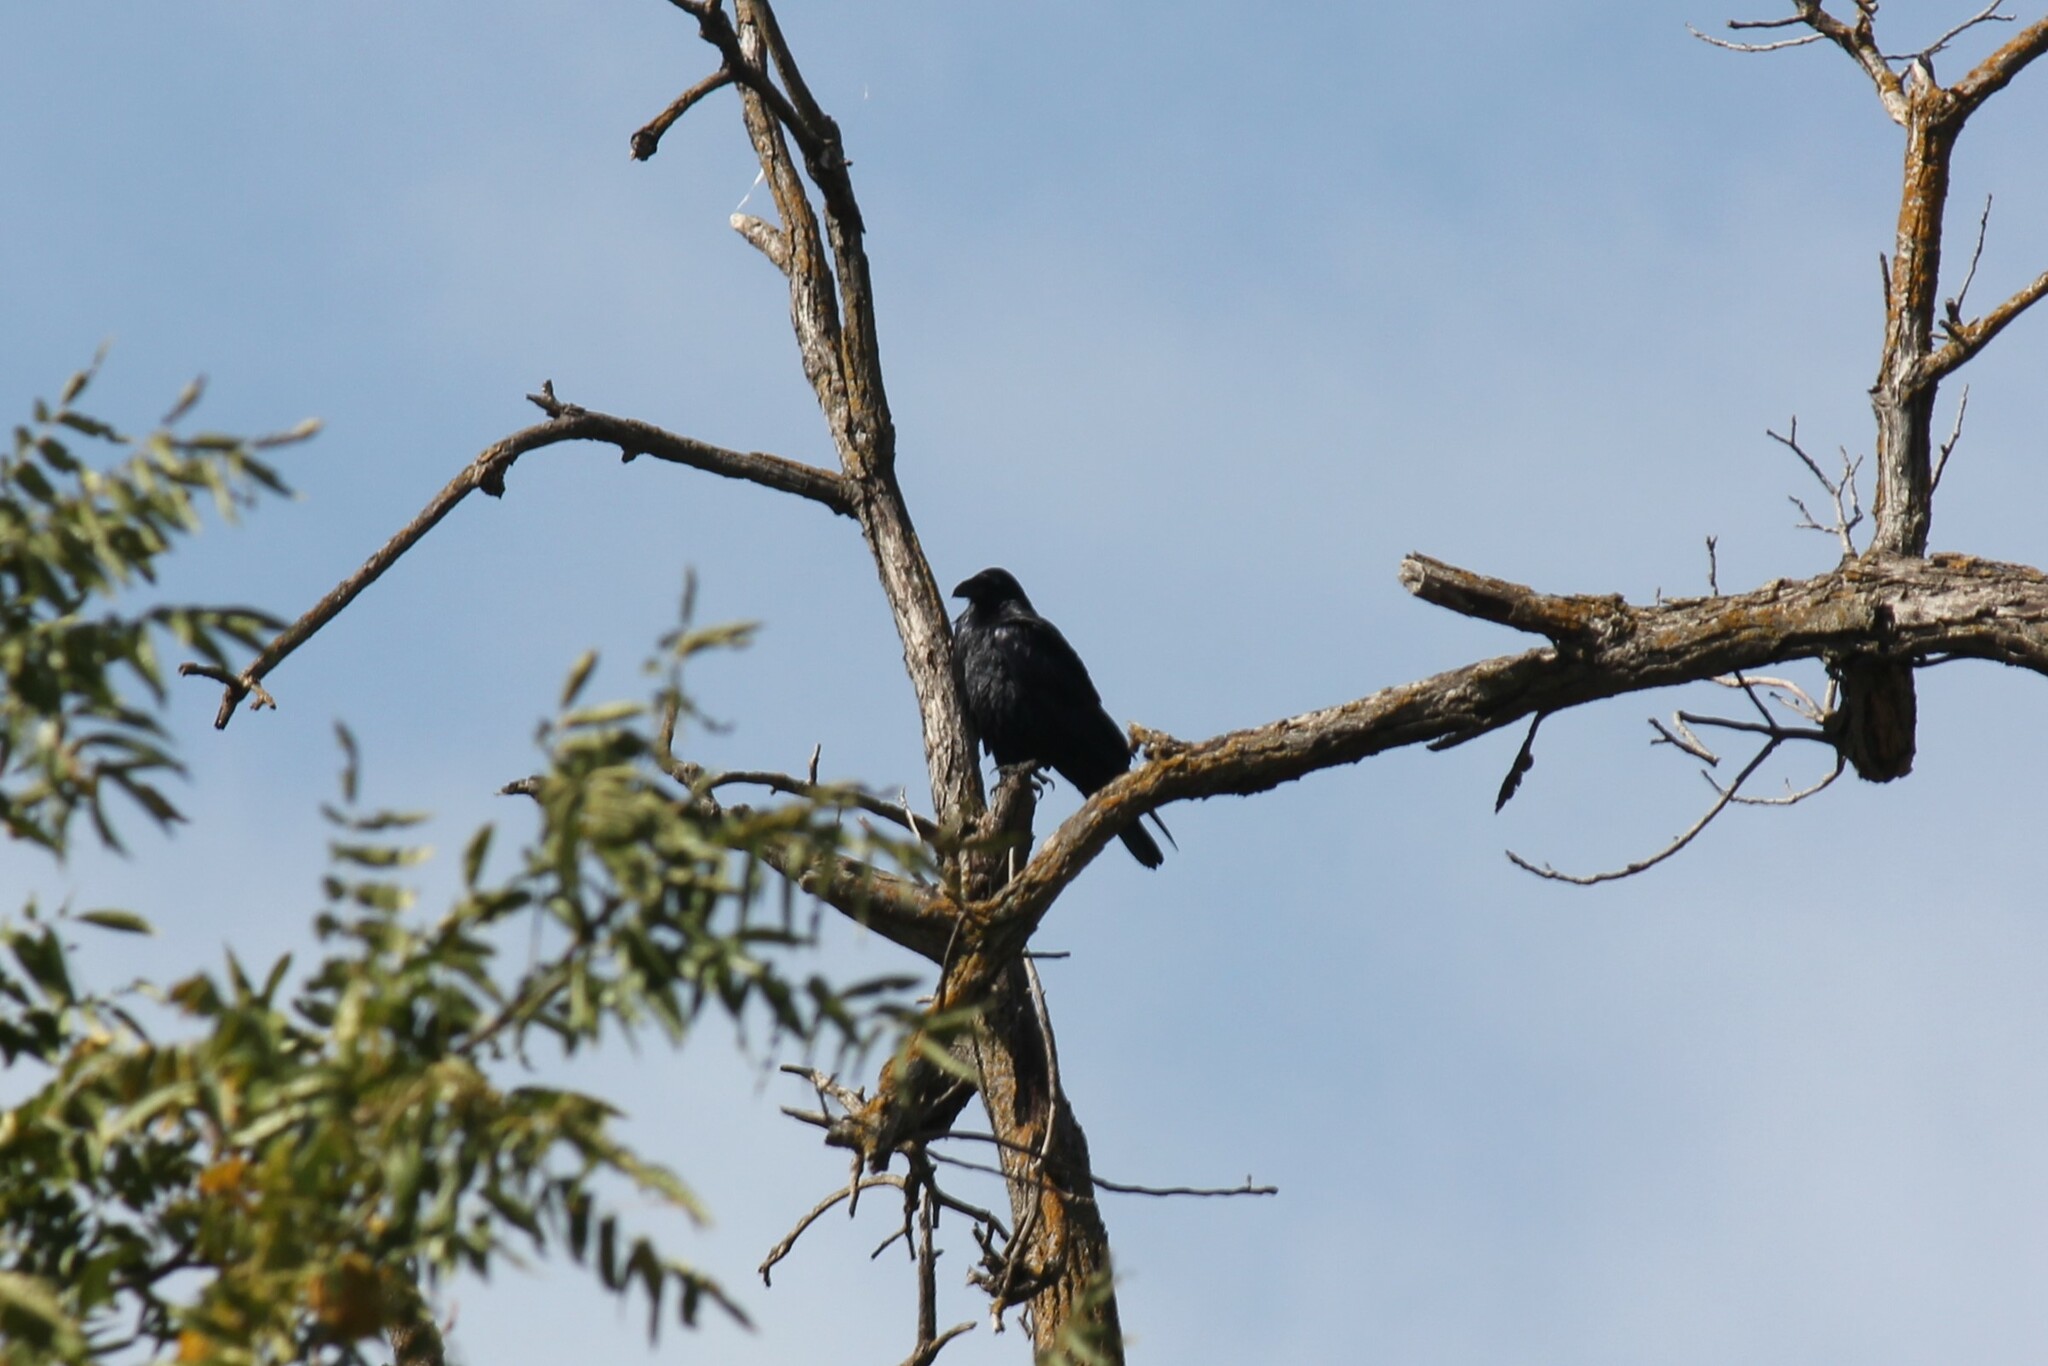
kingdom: Animalia
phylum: Chordata
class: Aves
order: Passeriformes
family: Corvidae
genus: Corvus
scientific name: Corvus brachyrhynchos
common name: American crow
